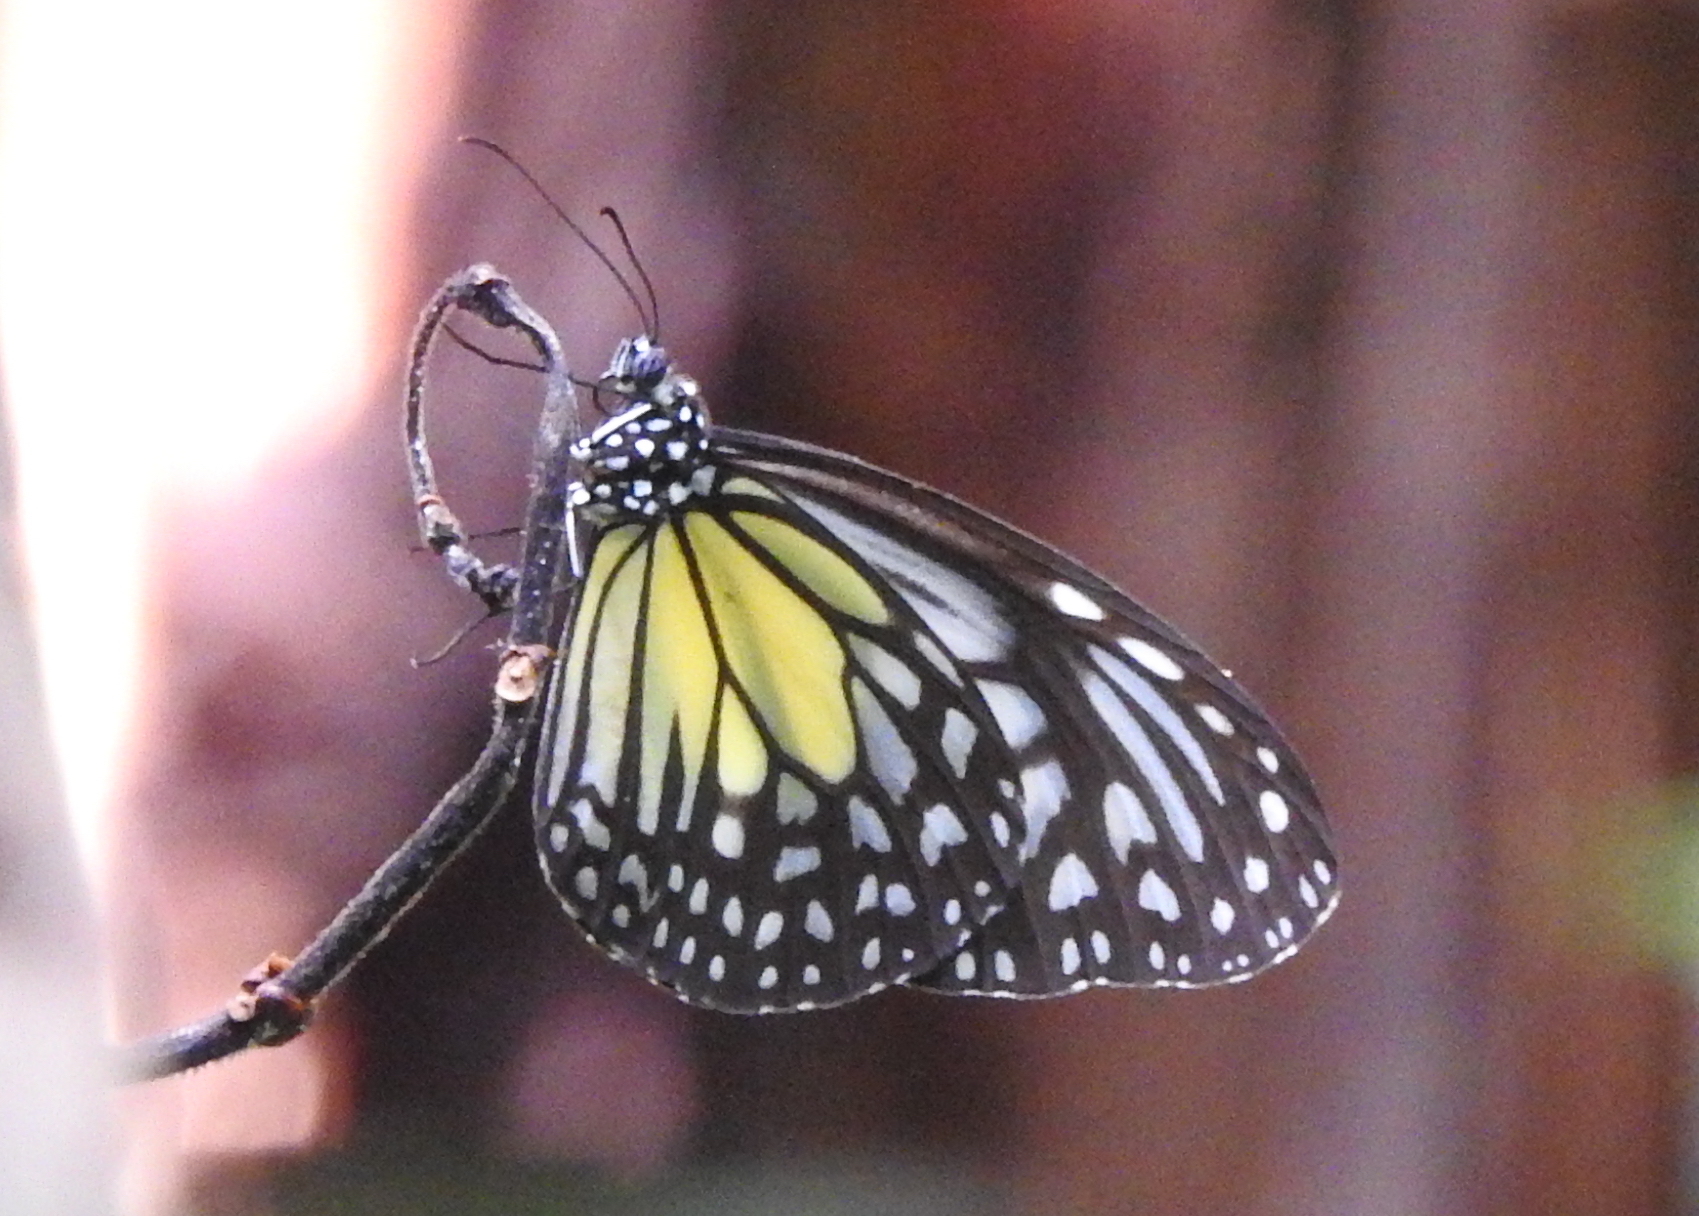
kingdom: Animalia
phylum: Arthropoda
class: Insecta
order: Lepidoptera
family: Nymphalidae
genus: Parantica
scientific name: Parantica aspasia
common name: Yellow glassy tiger
